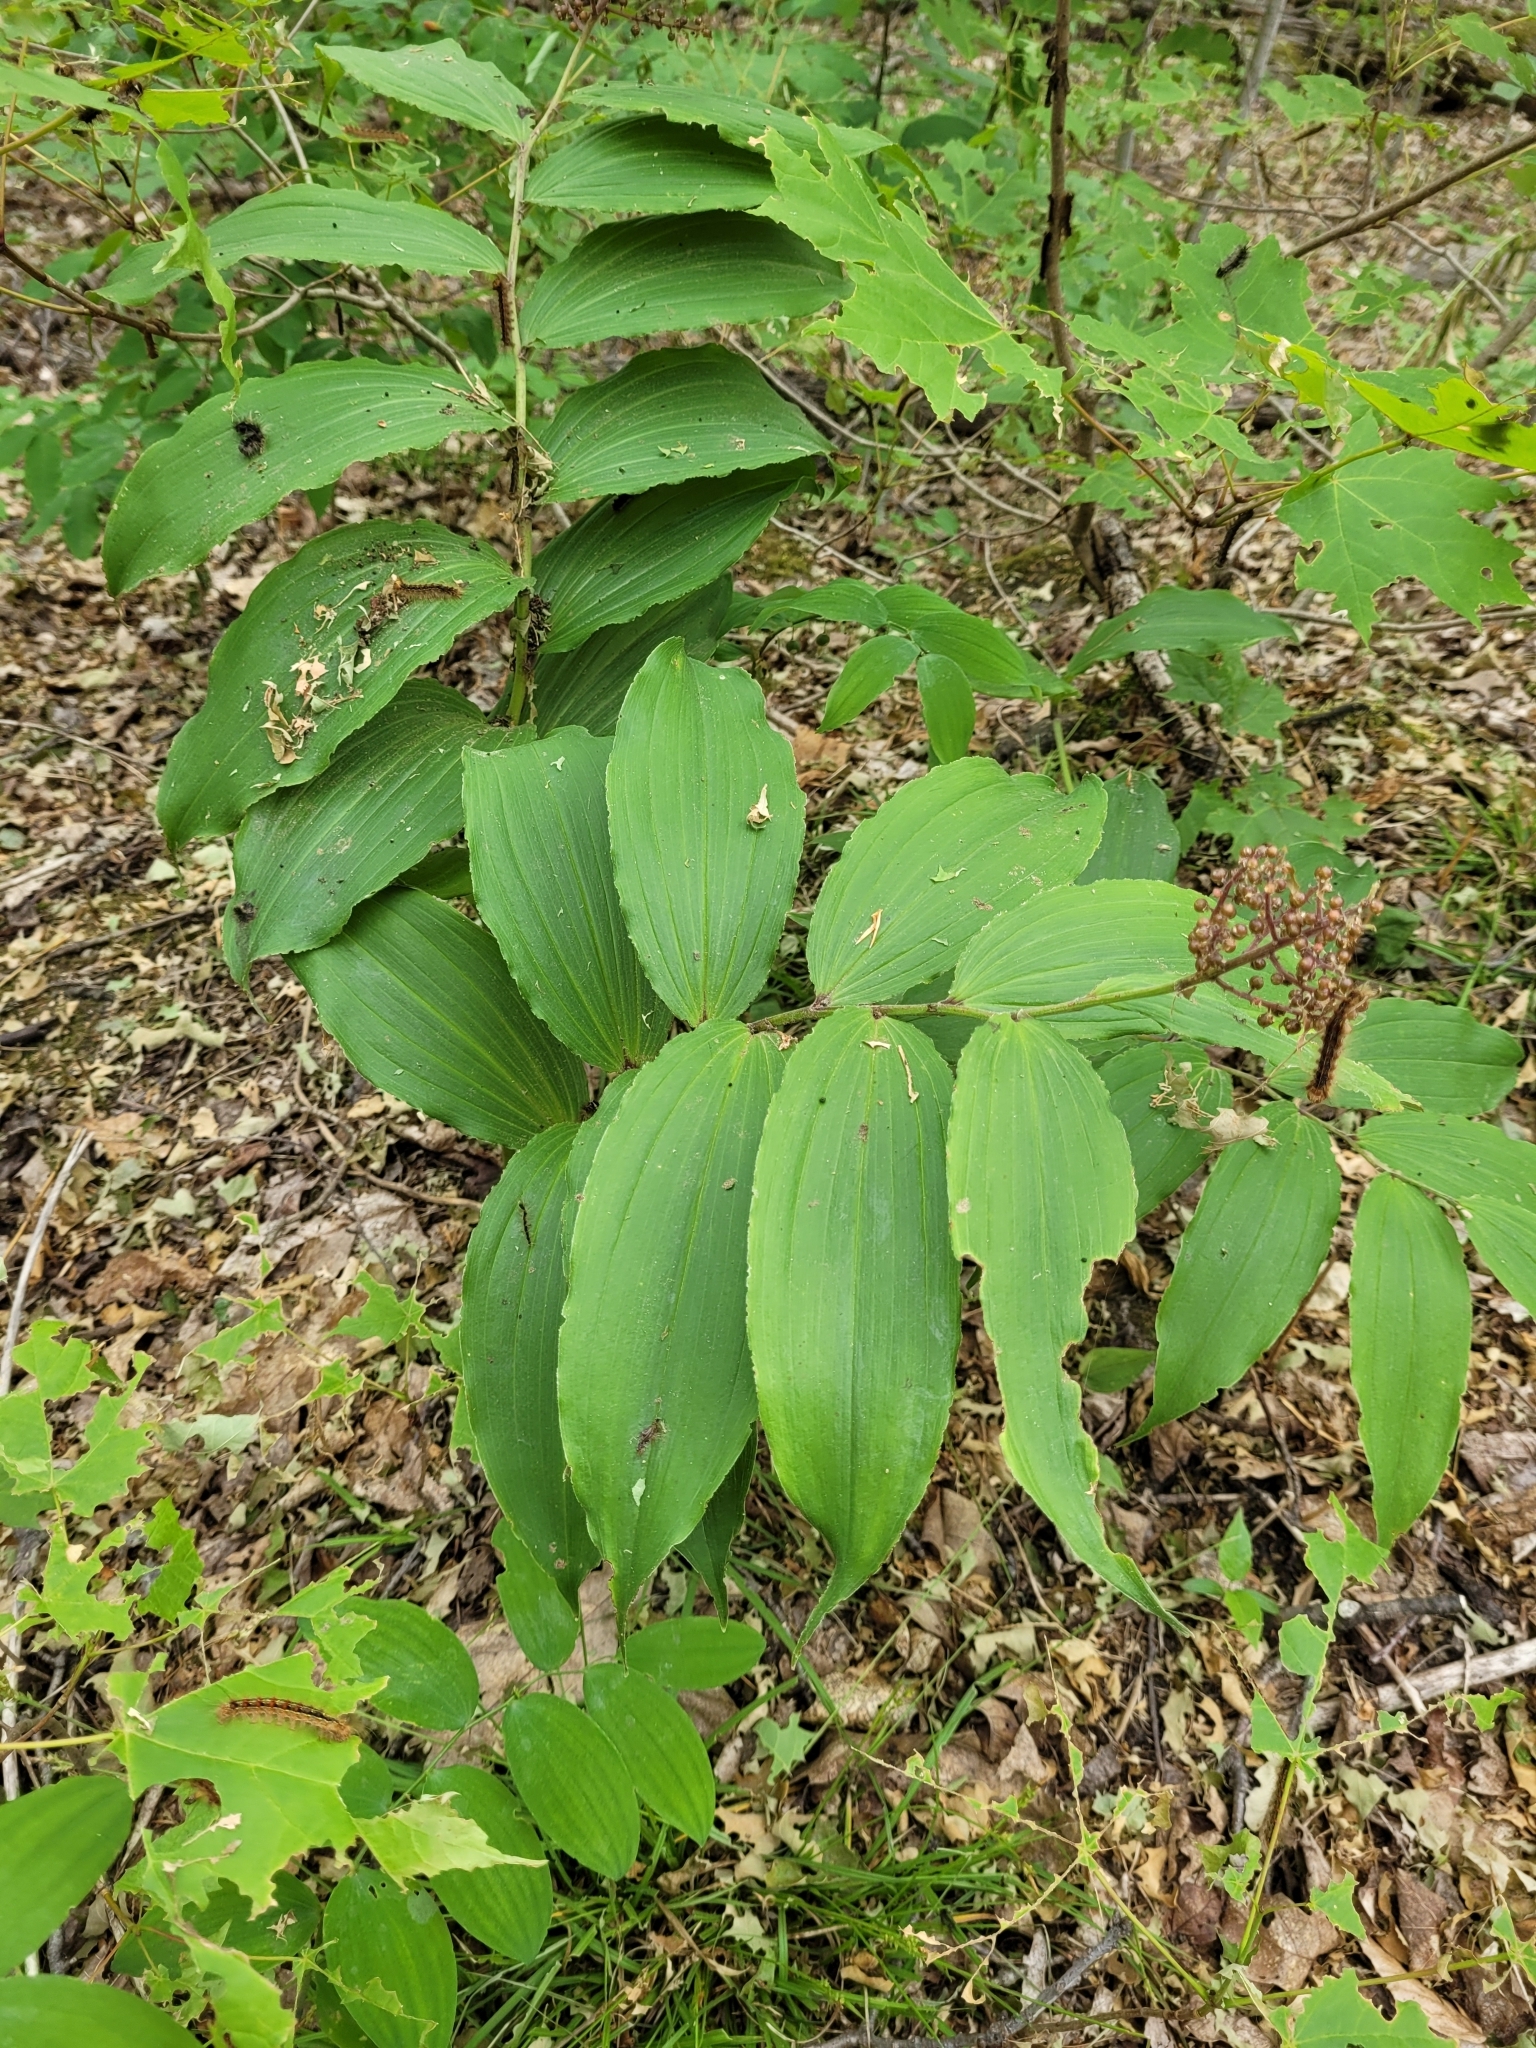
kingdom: Plantae
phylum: Tracheophyta
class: Liliopsida
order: Asparagales
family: Asparagaceae
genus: Maianthemum
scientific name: Maianthemum racemosum
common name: False spikenard
